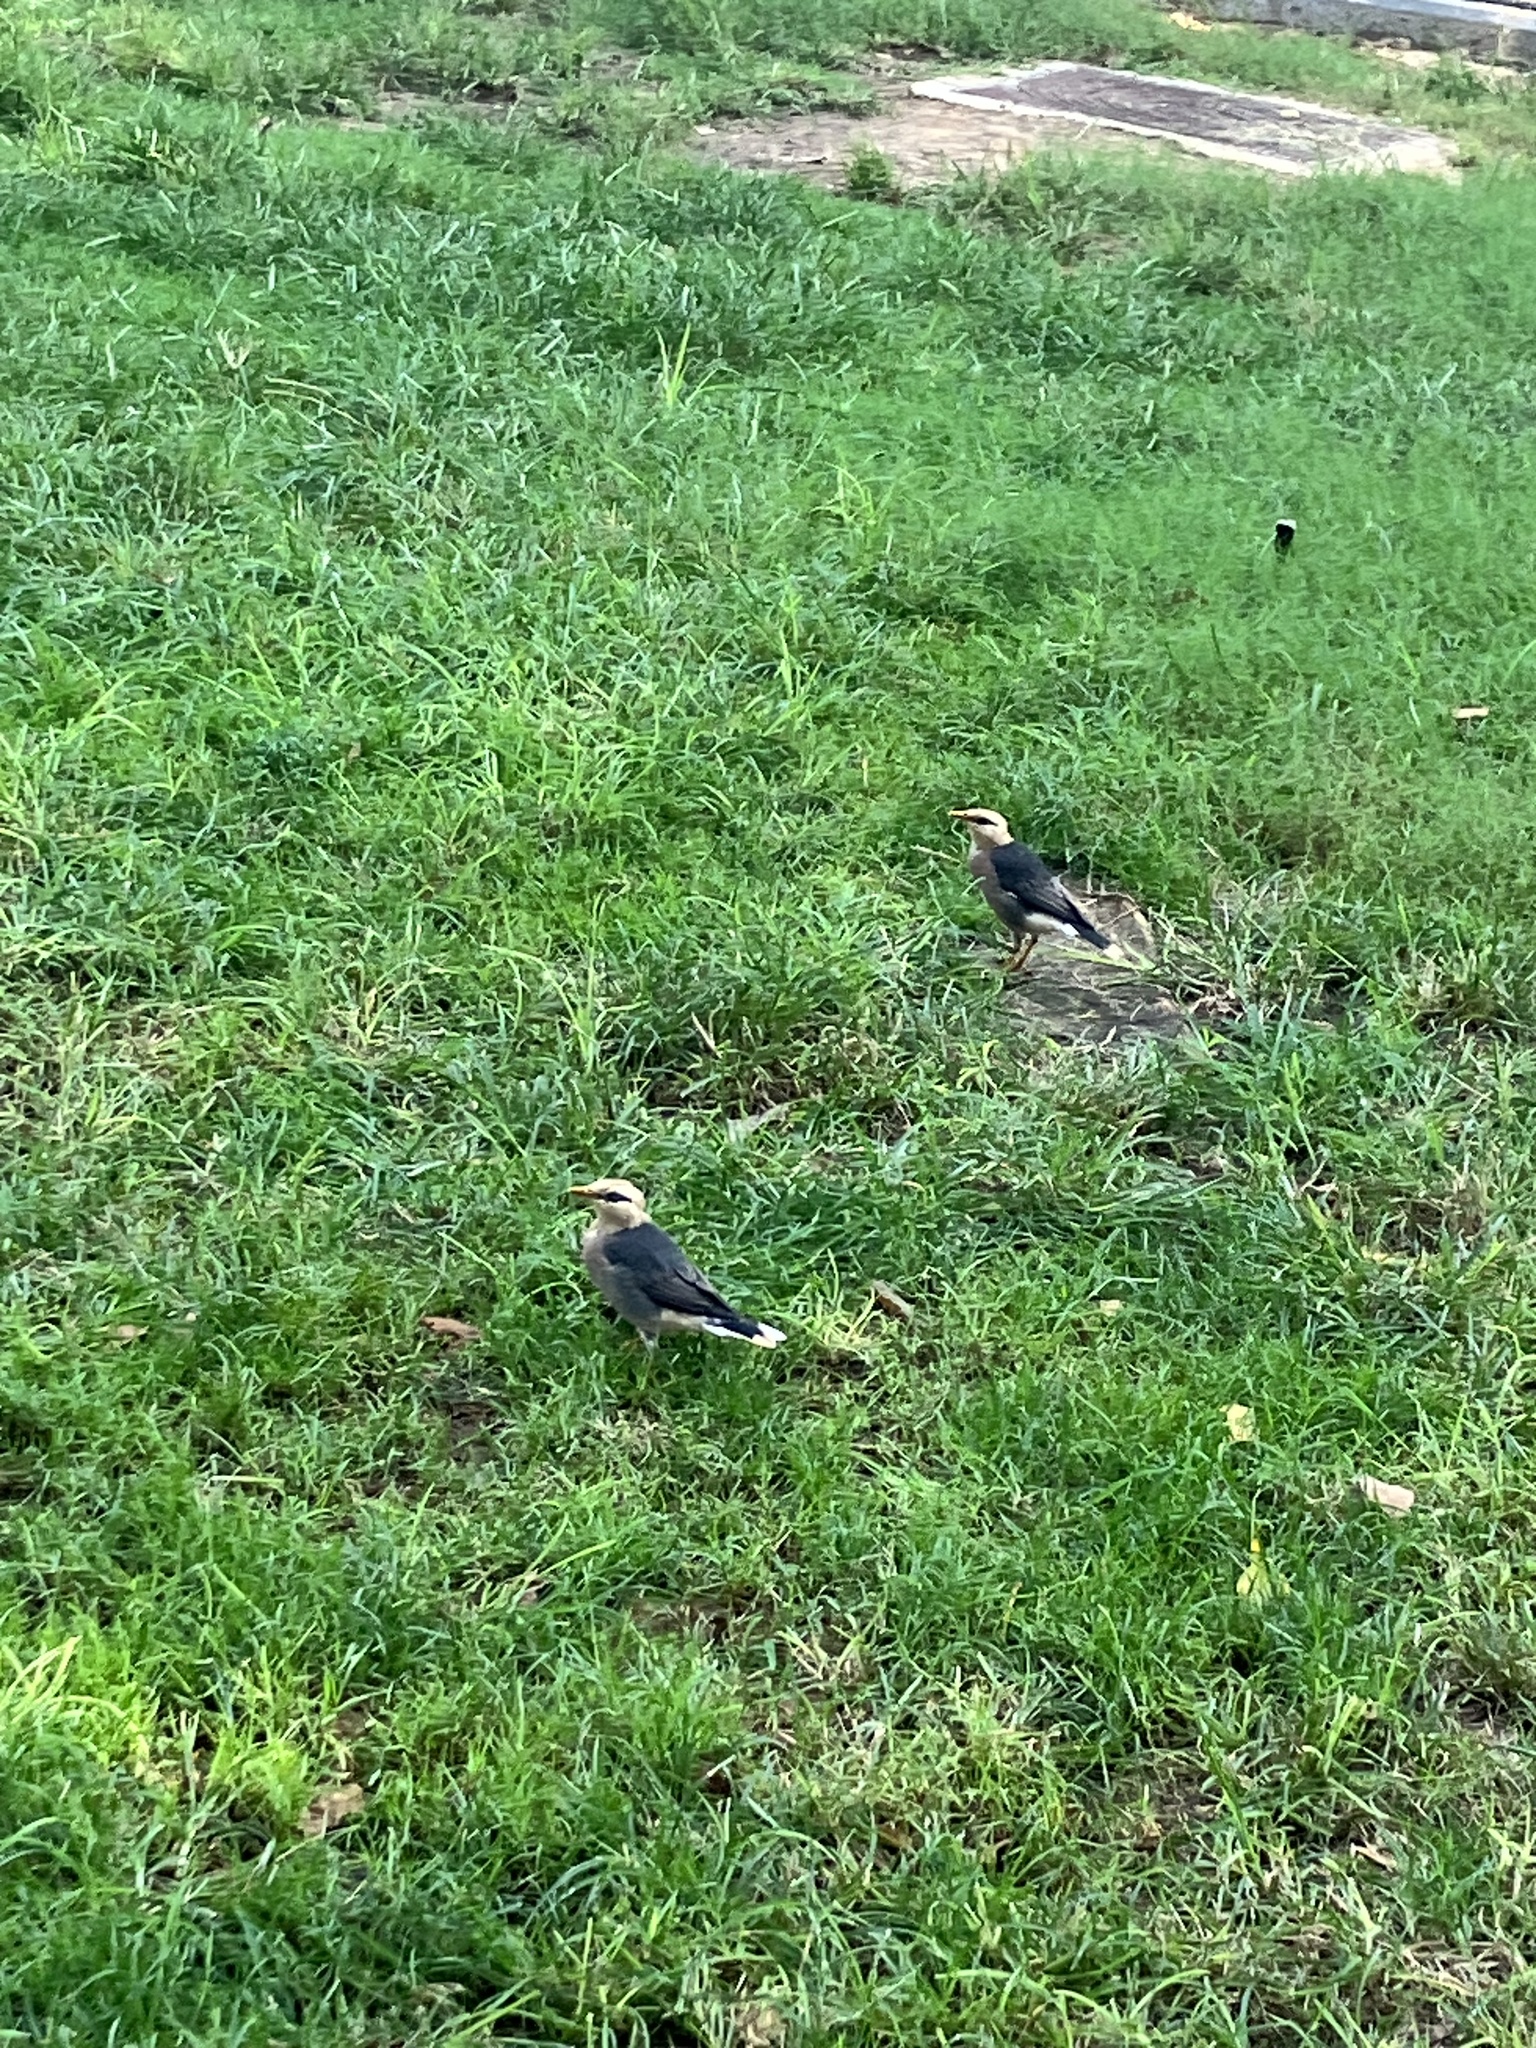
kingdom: Animalia
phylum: Chordata
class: Aves
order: Passeriformes
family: Sturnidae
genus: Acridotheres
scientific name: Acridotheres leucocephalus
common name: Vinous-breasted myna
